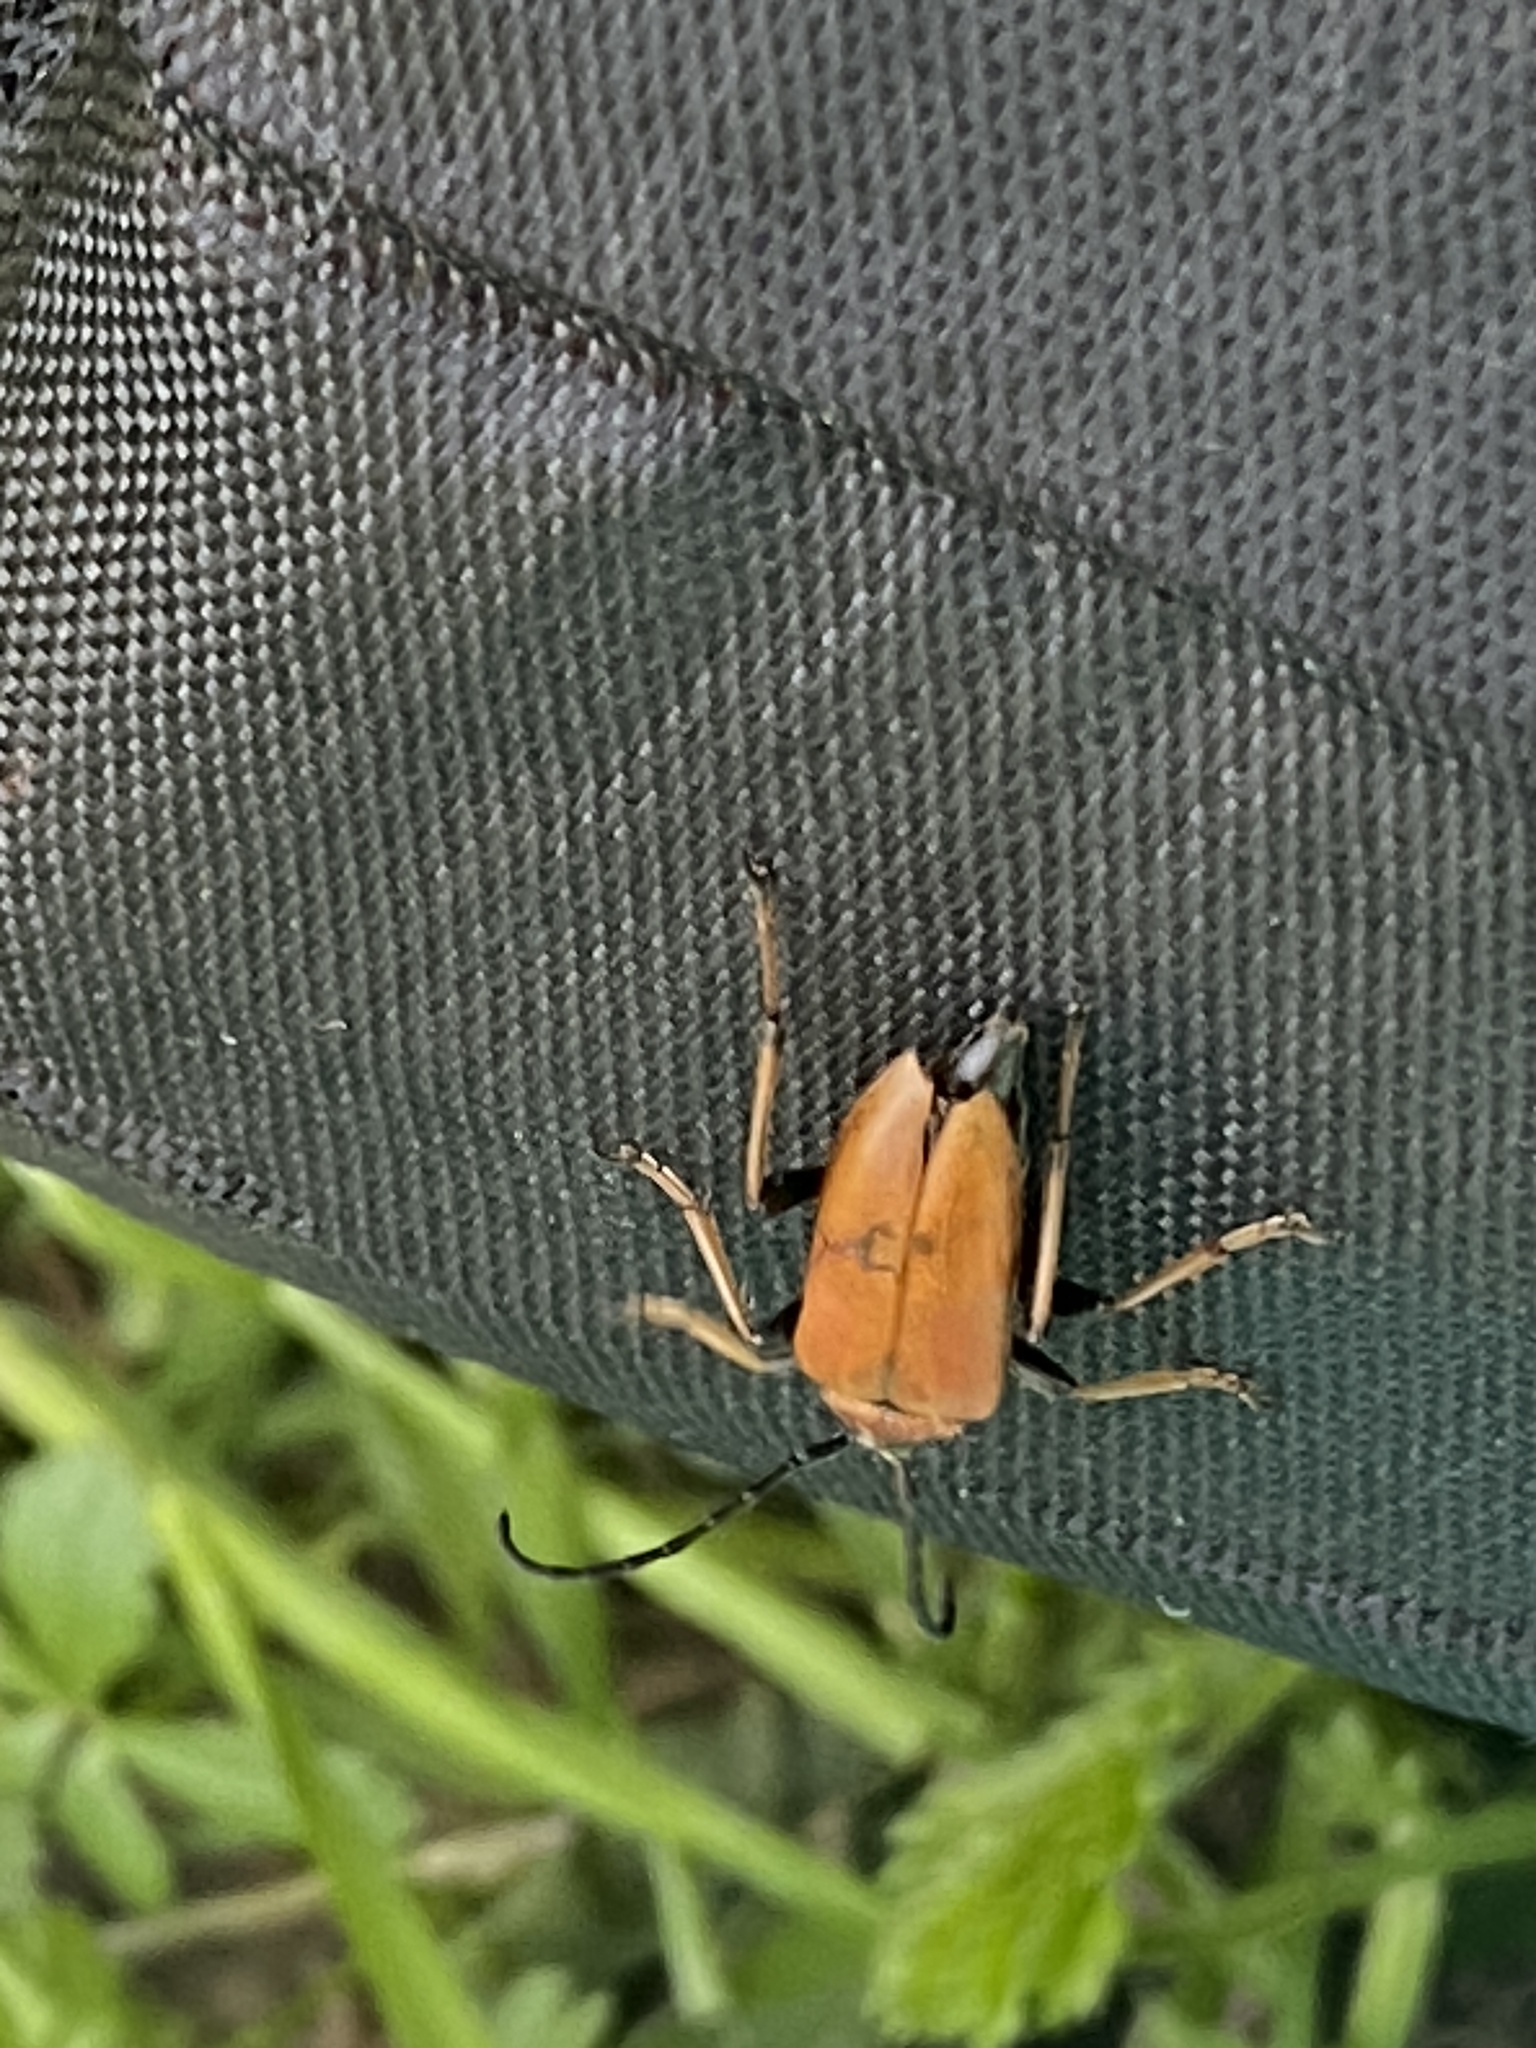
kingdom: Animalia
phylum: Arthropoda
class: Insecta
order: Coleoptera
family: Cerambycidae
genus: Stictoleptura
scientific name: Stictoleptura rubra
